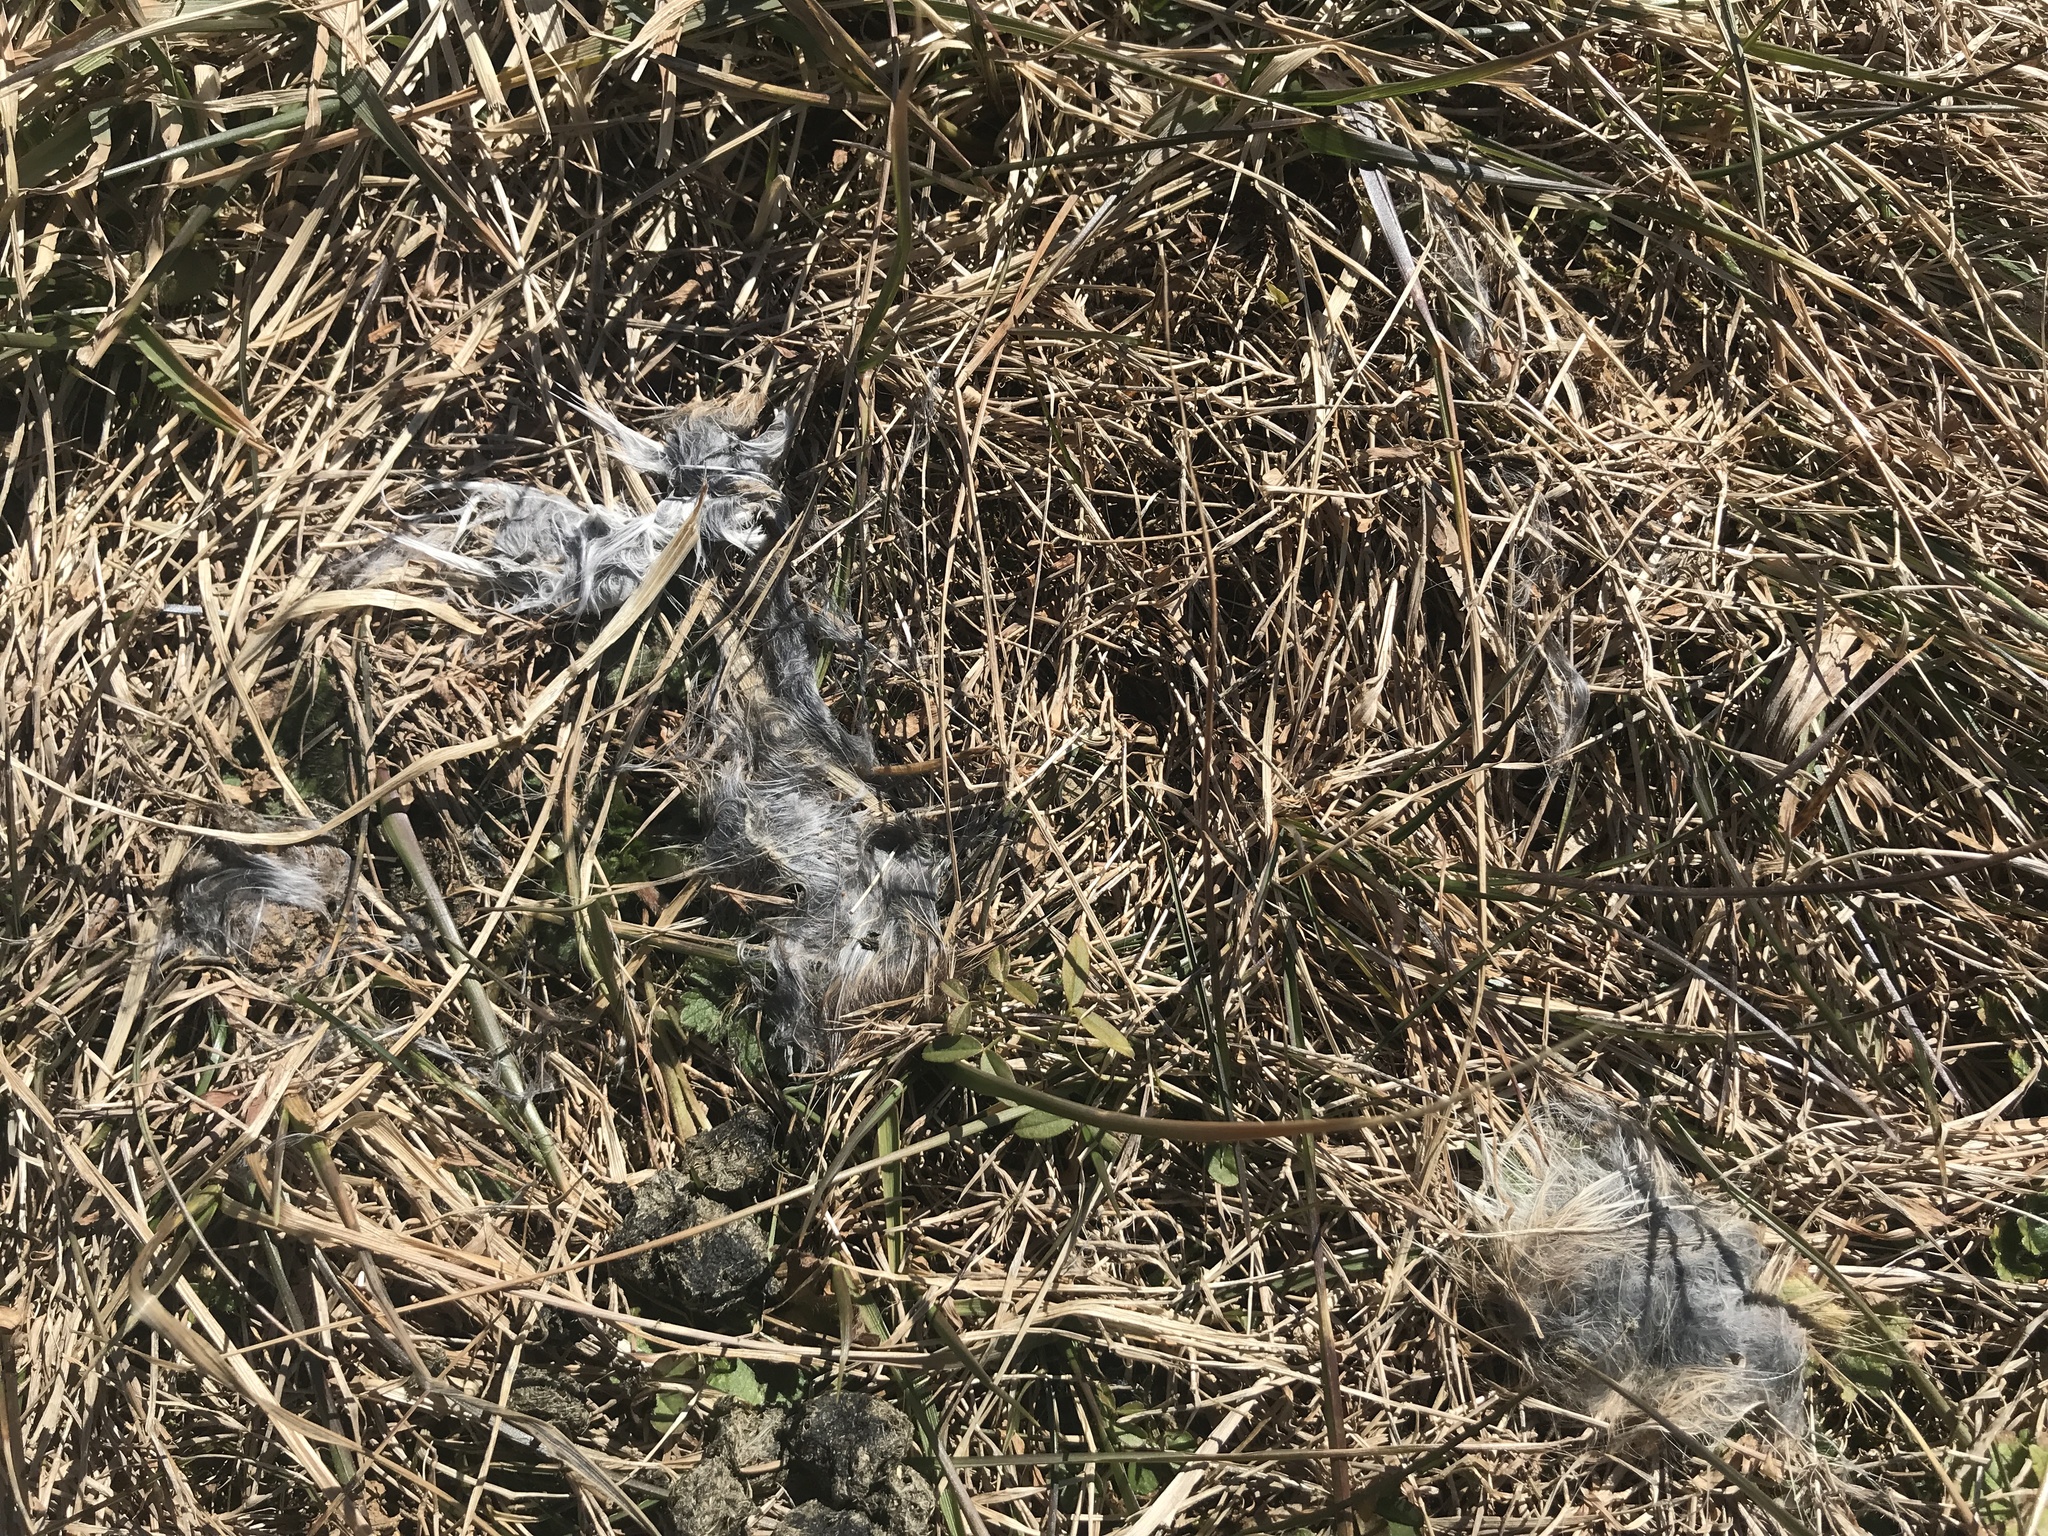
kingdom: Animalia
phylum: Chordata
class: Mammalia
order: Lagomorpha
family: Leporidae
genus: Sylvilagus
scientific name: Sylvilagus floridanus
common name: Eastern cottontail
